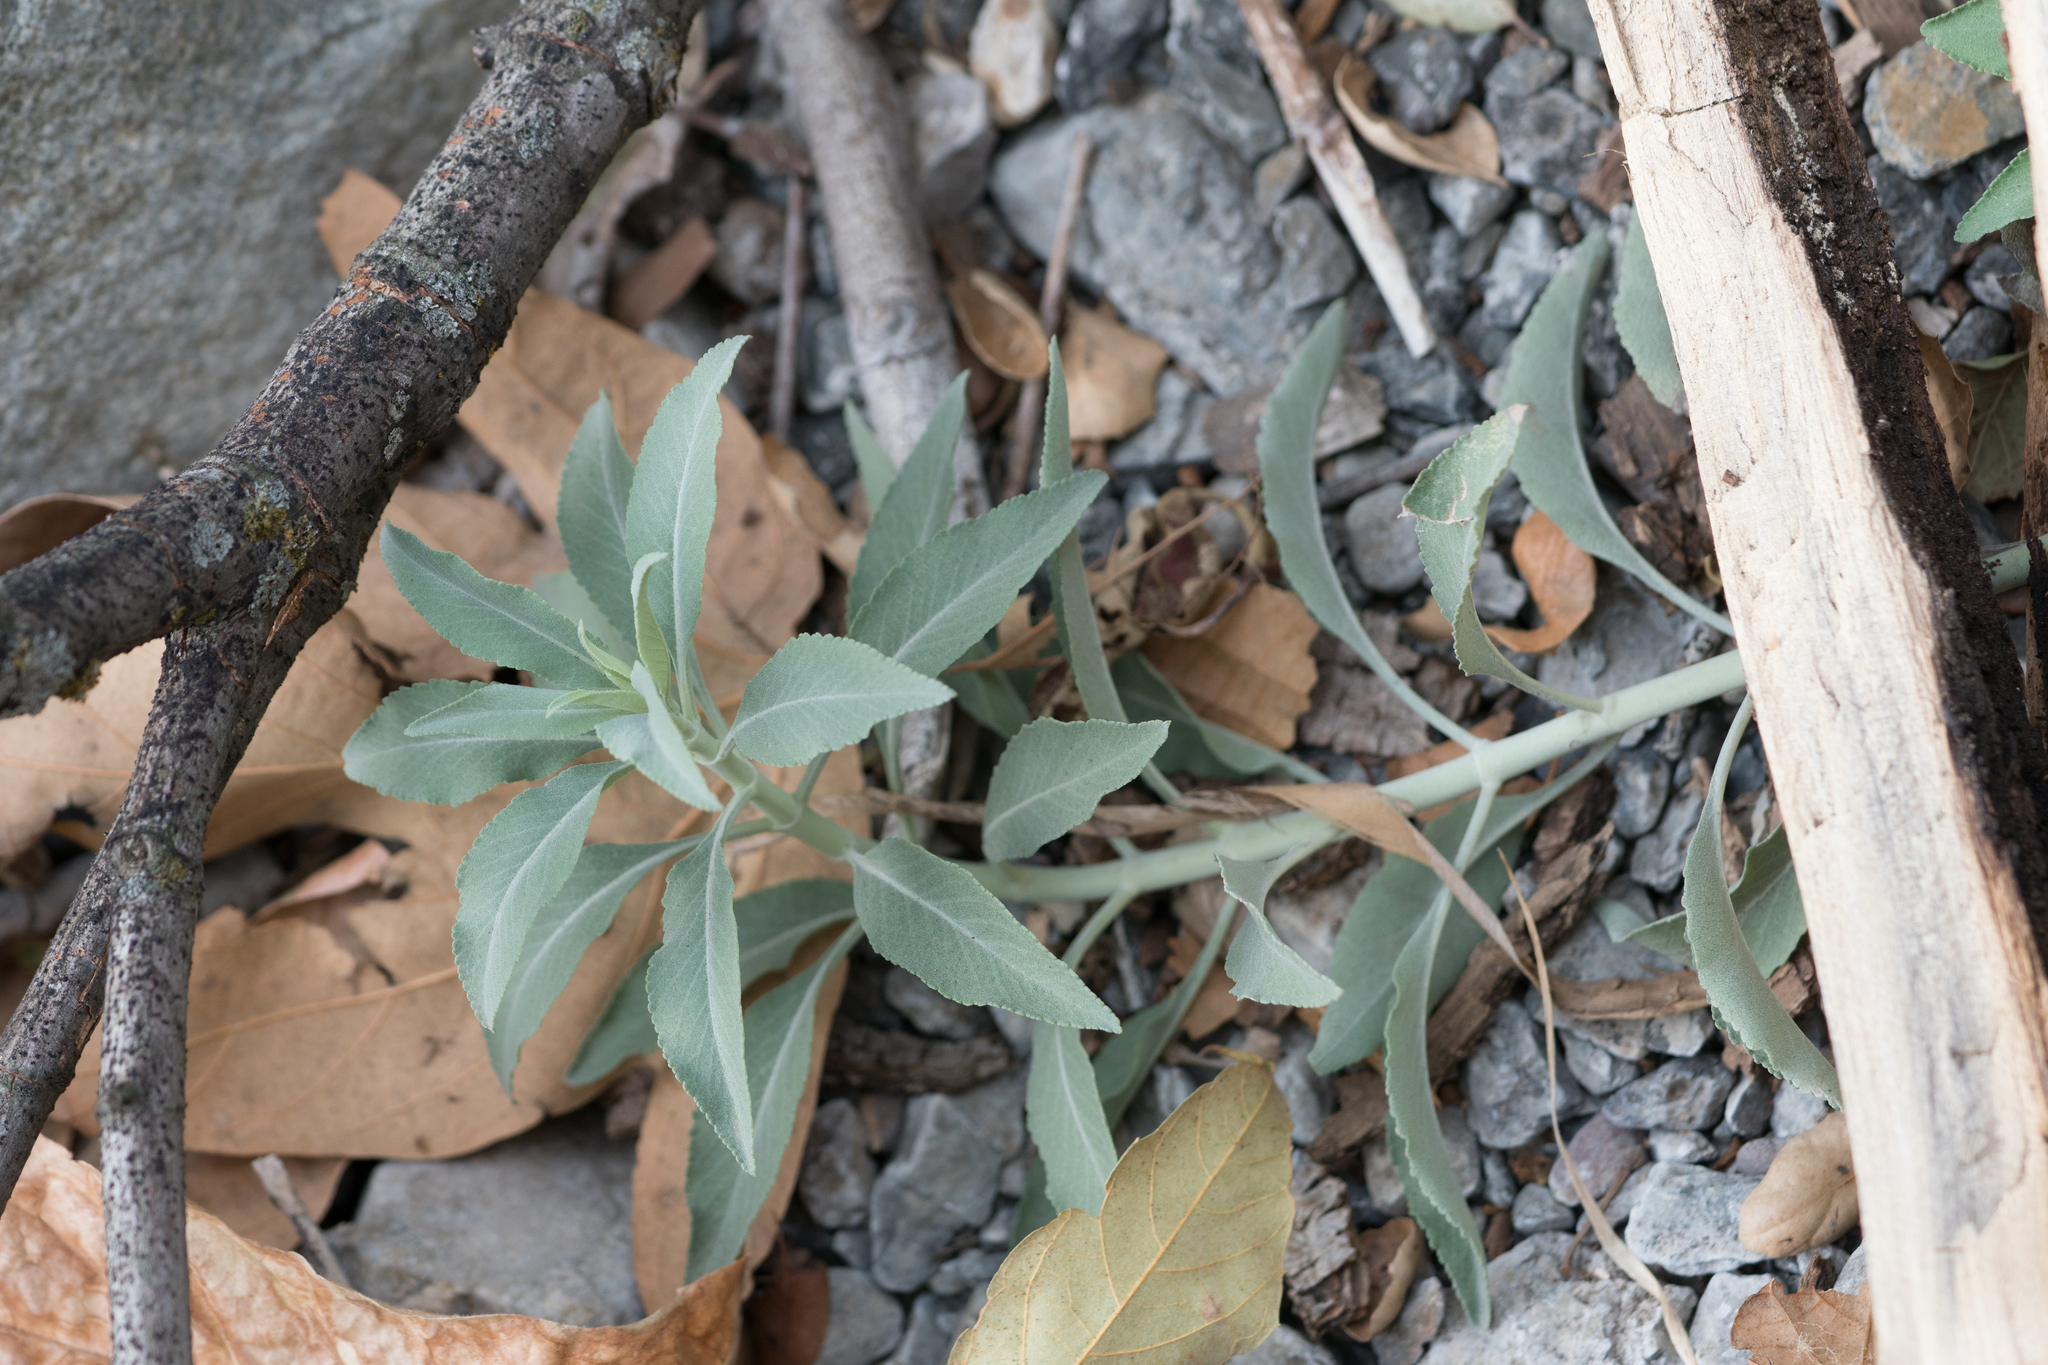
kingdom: Plantae
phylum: Tracheophyta
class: Magnoliopsida
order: Lamiales
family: Lamiaceae
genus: Salvia
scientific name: Salvia apiana
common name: White sage
